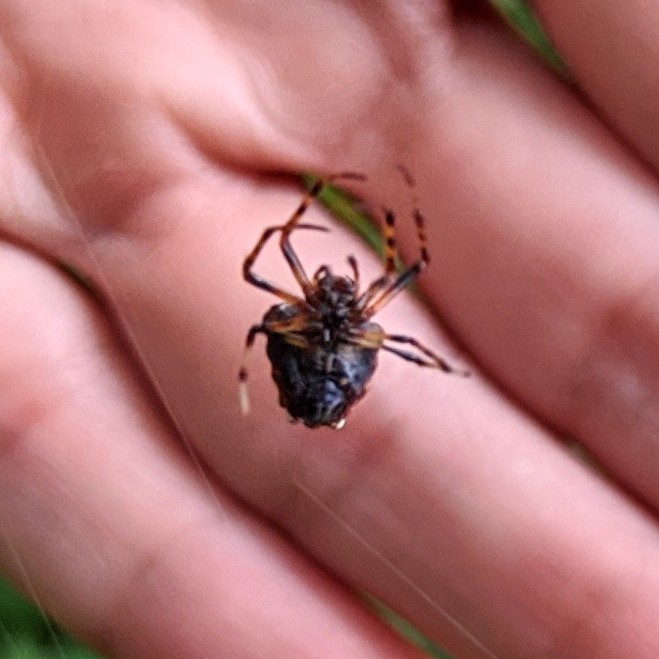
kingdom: Animalia
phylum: Arthropoda
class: Arachnida
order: Araneae
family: Araneidae
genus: Verrucosa
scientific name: Verrucosa arenata
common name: Orb weavers
